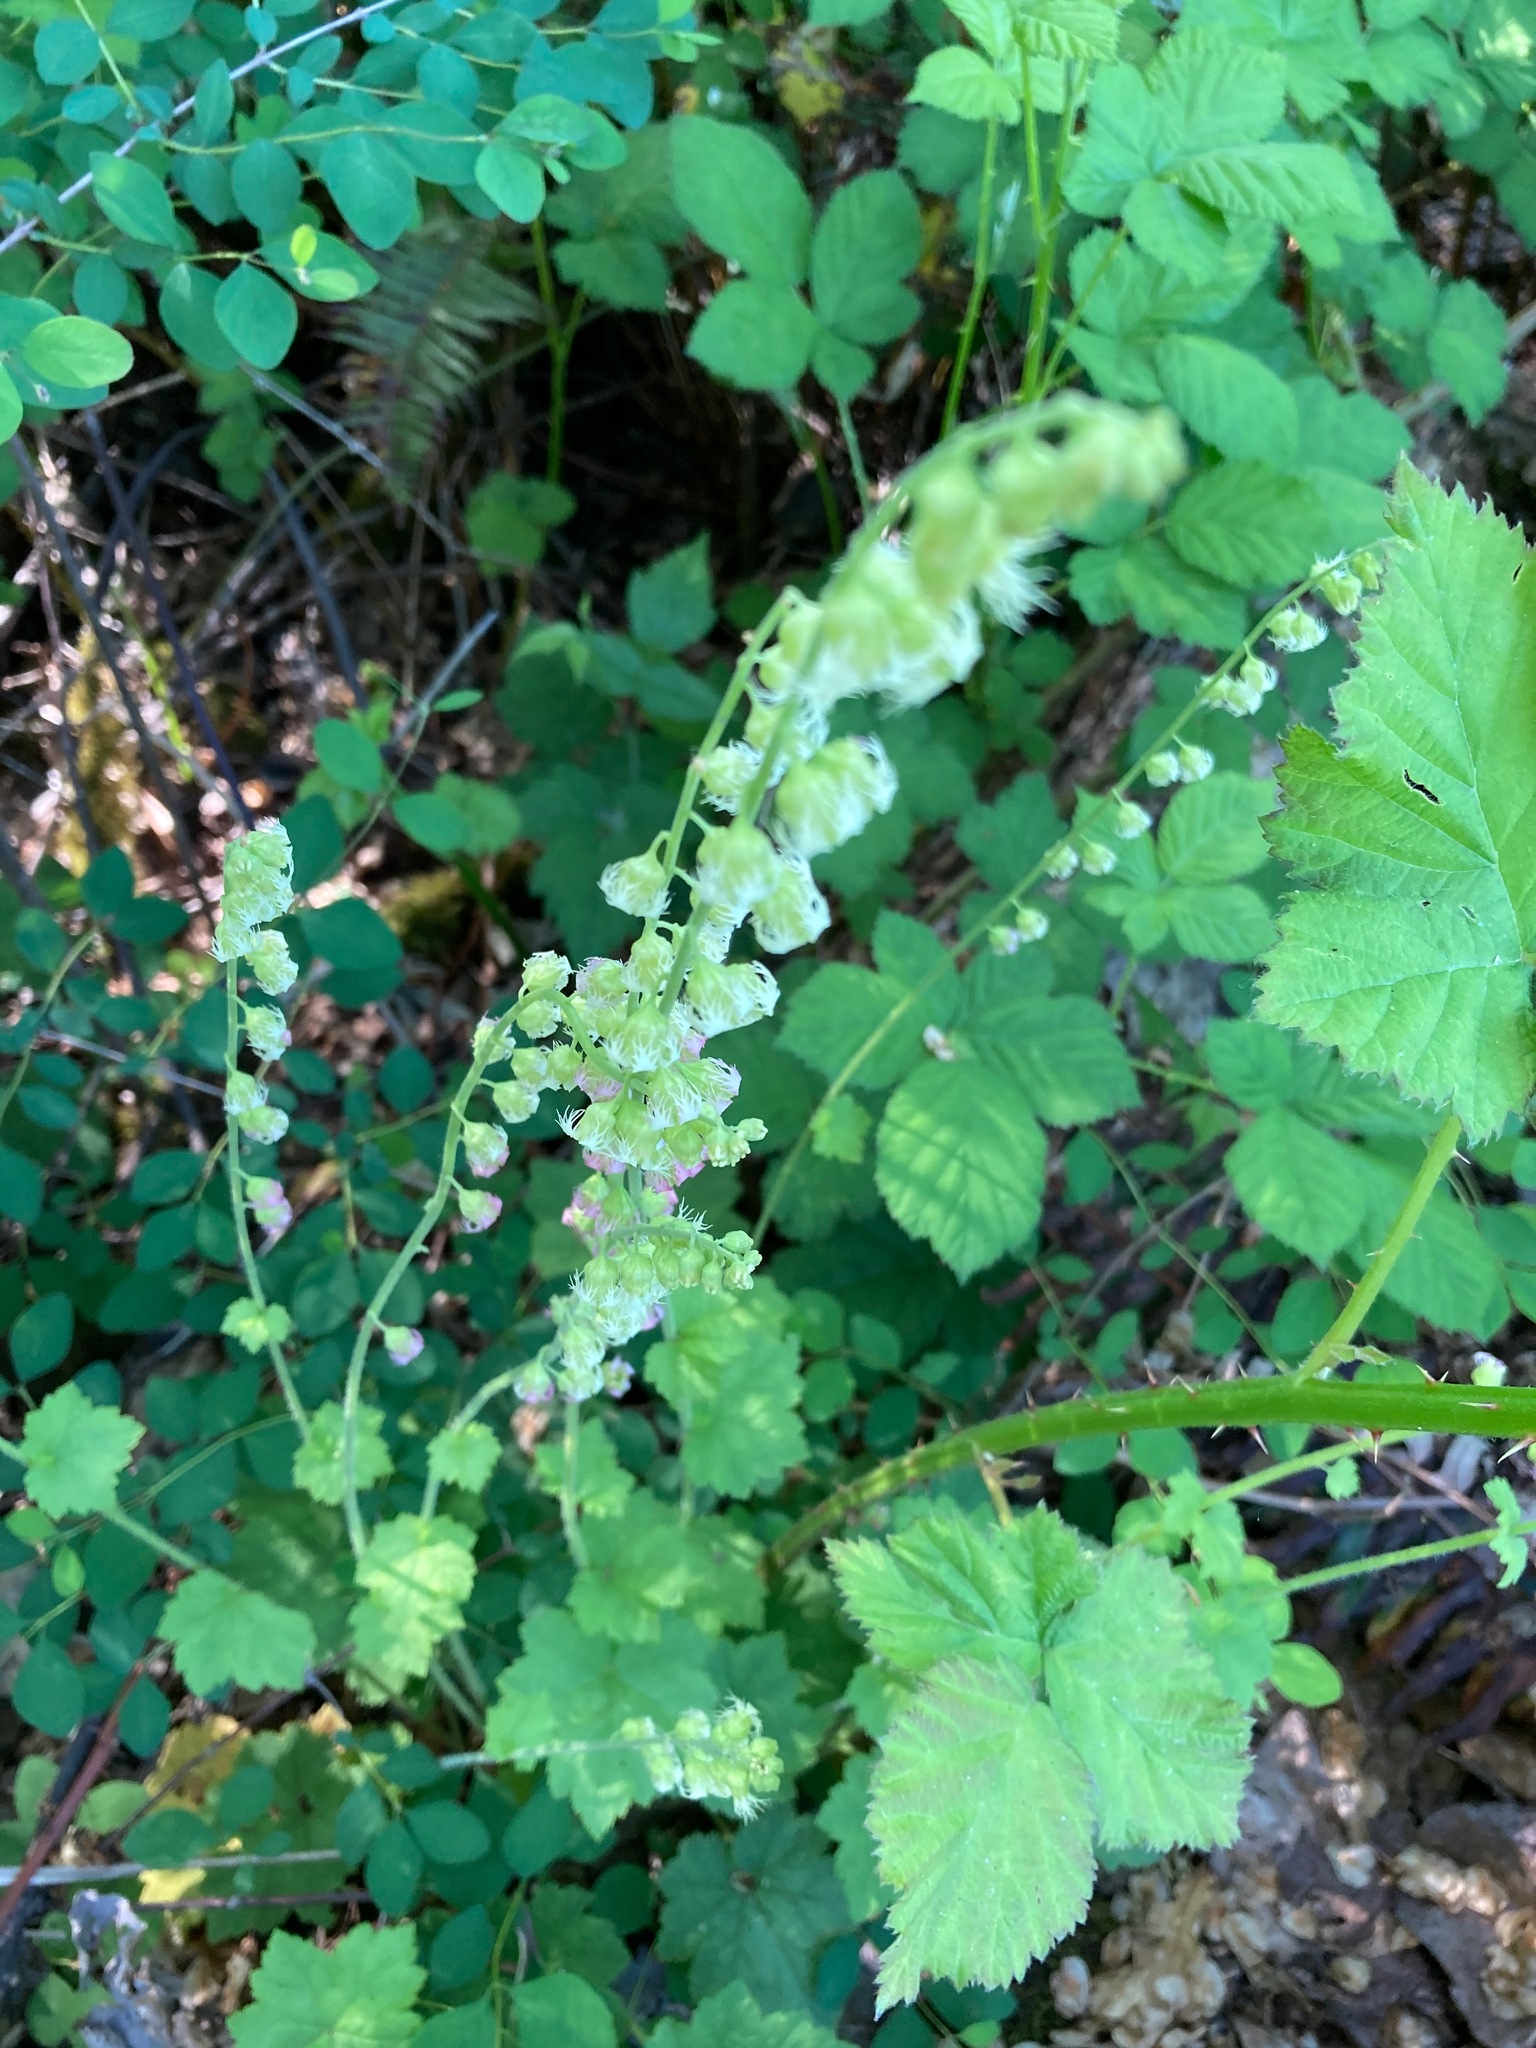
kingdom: Plantae
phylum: Tracheophyta
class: Magnoliopsida
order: Saxifragales
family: Saxifragaceae
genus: Tellima
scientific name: Tellima grandiflora
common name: Fringecups
